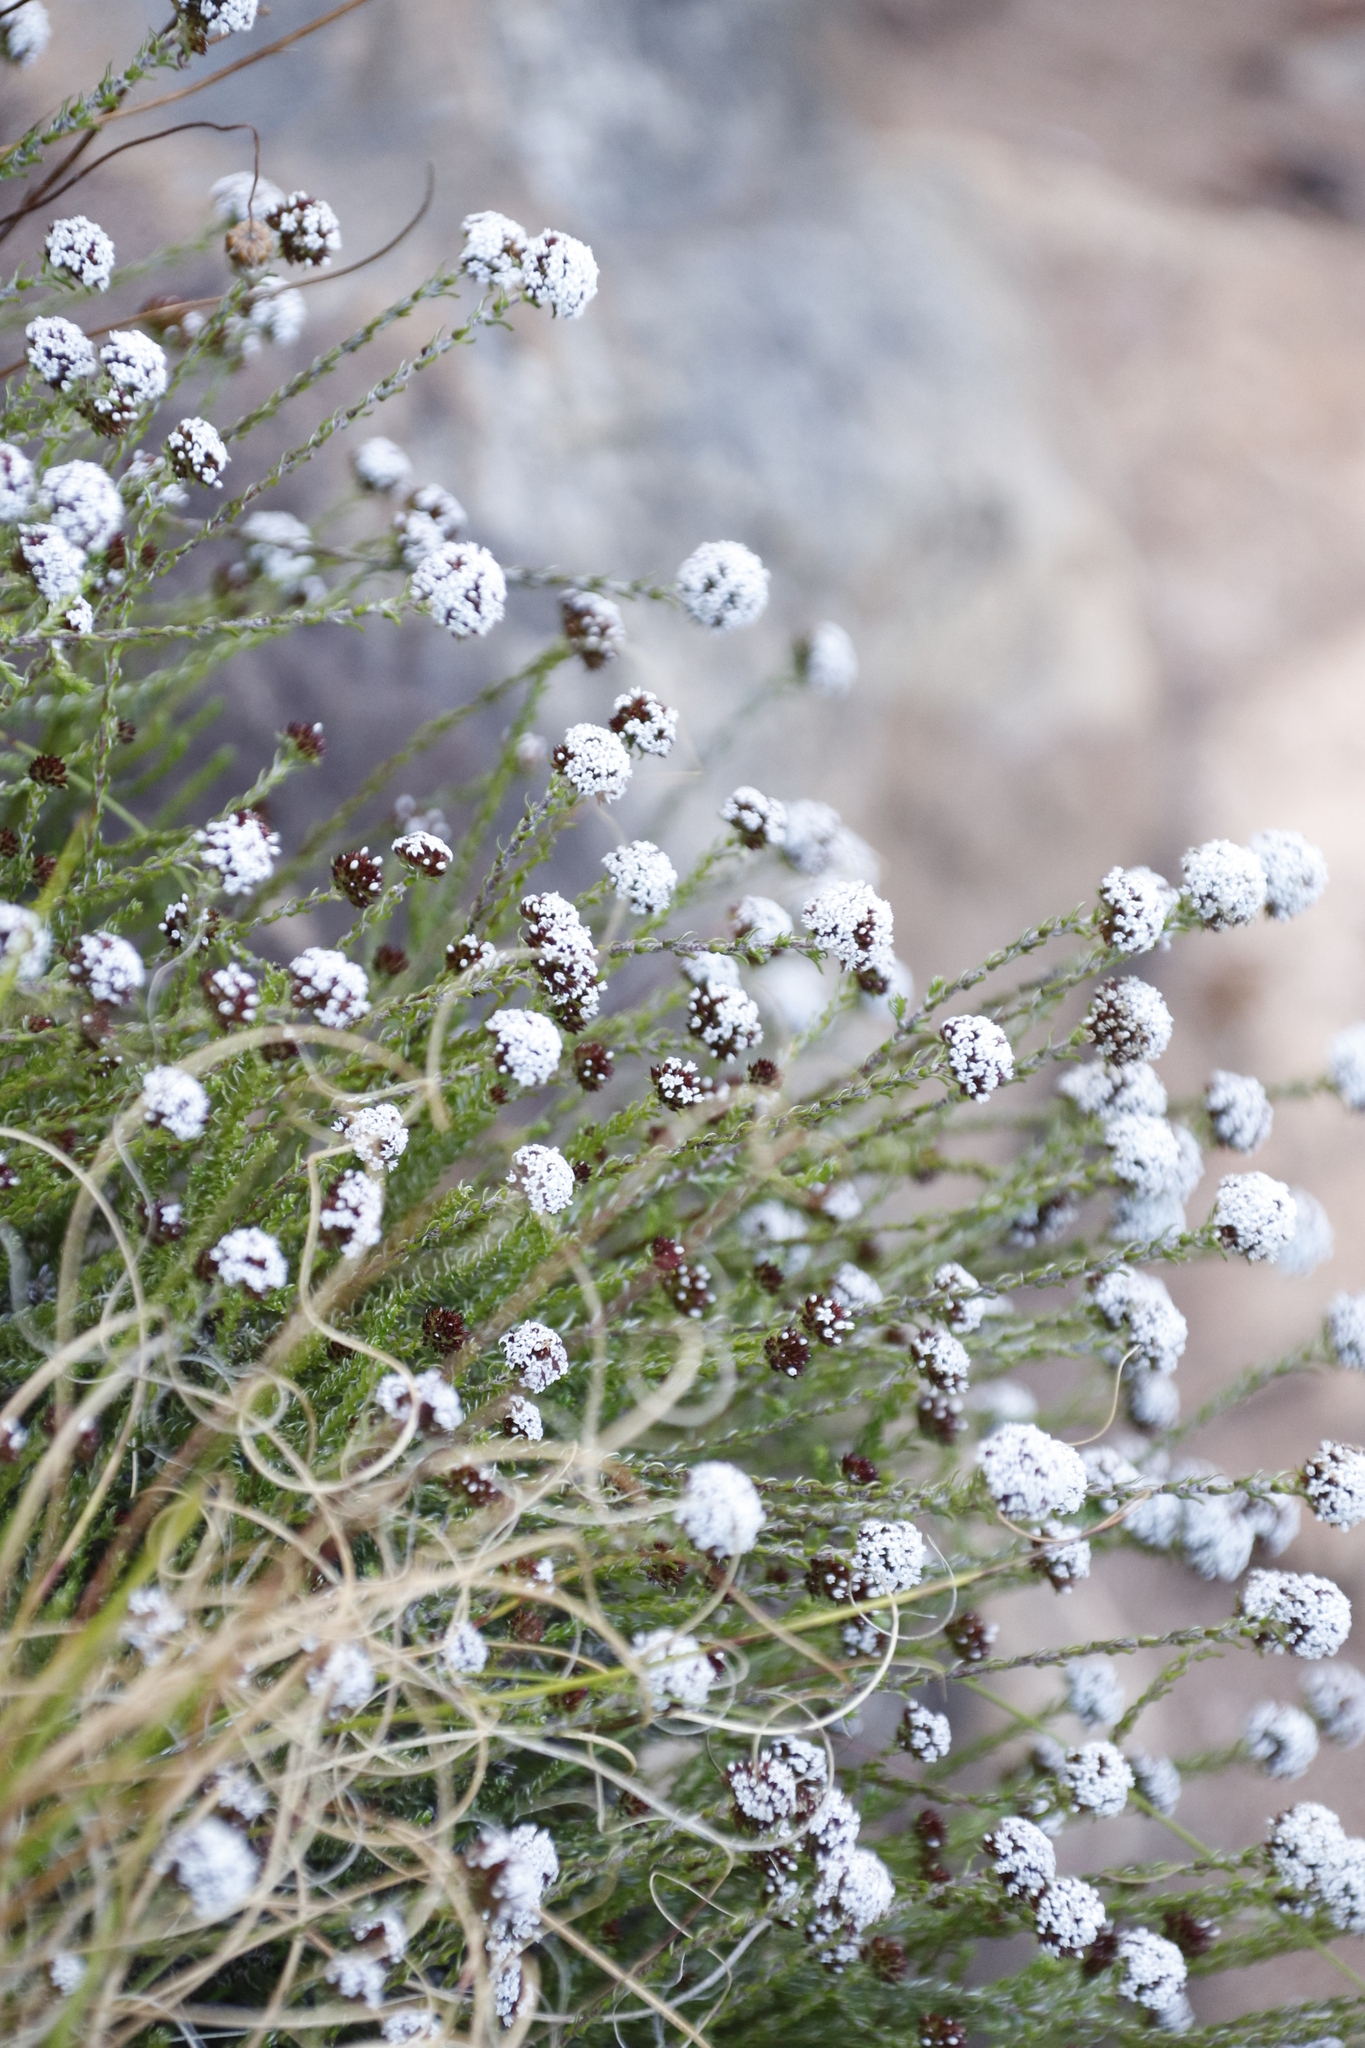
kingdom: Plantae
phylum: Tracheophyta
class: Magnoliopsida
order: Asterales
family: Asteraceae
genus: Stoebe
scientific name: Stoebe capitata
